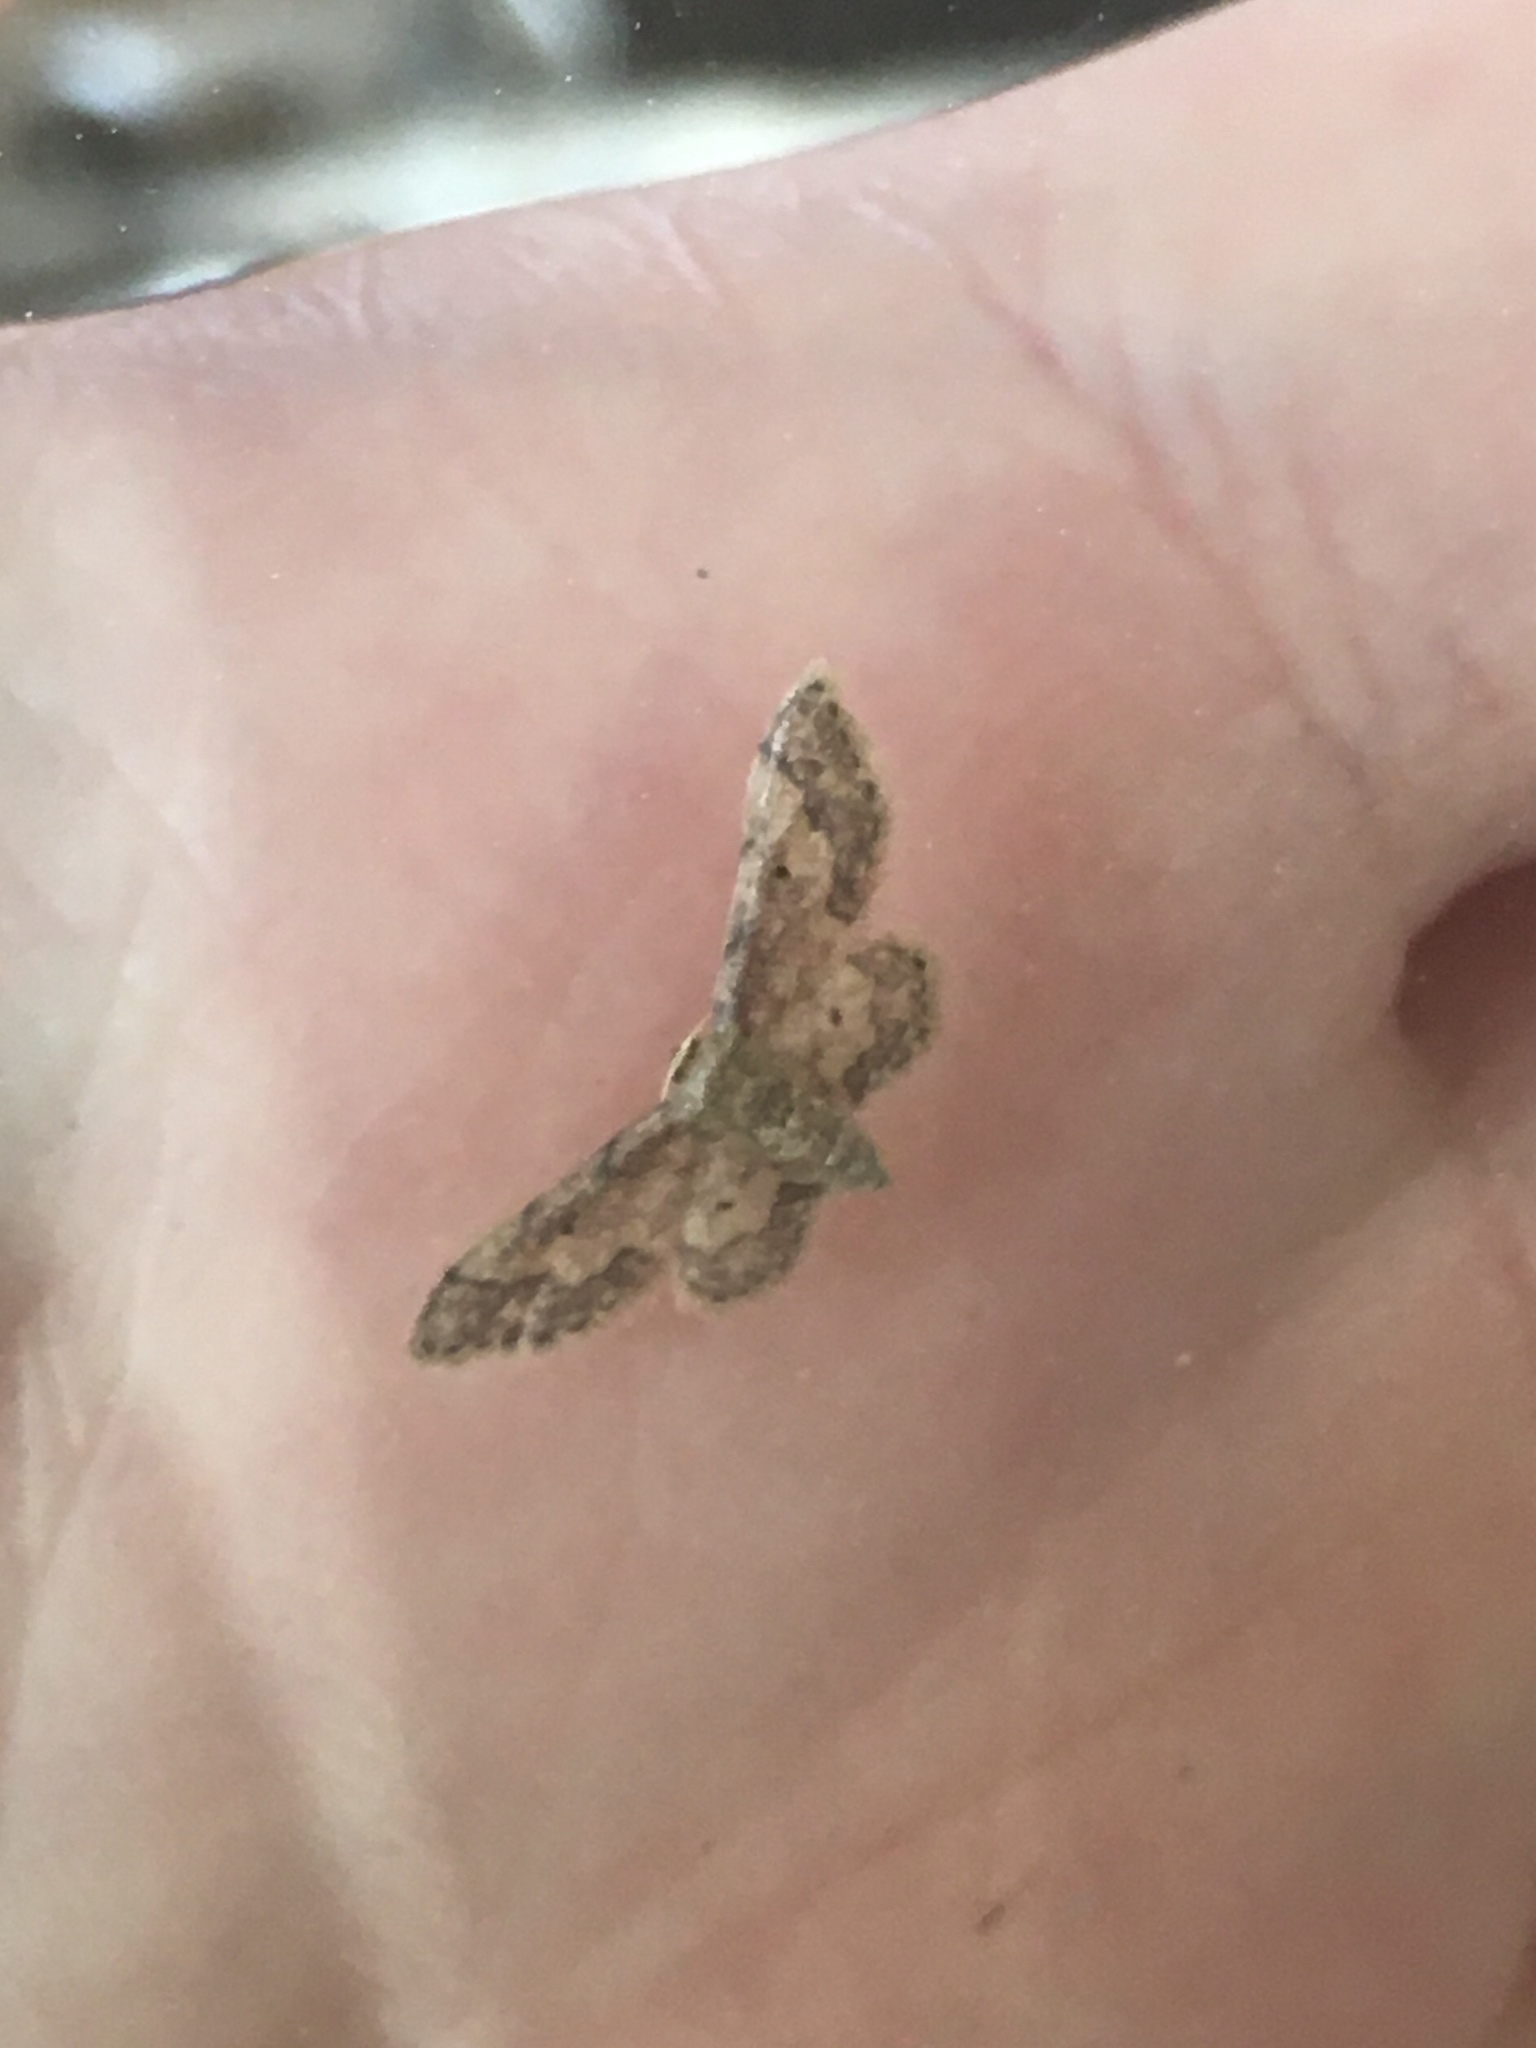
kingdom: Animalia
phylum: Arthropoda
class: Insecta
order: Lepidoptera
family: Geometridae
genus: Idaea
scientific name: Idaea celtima
